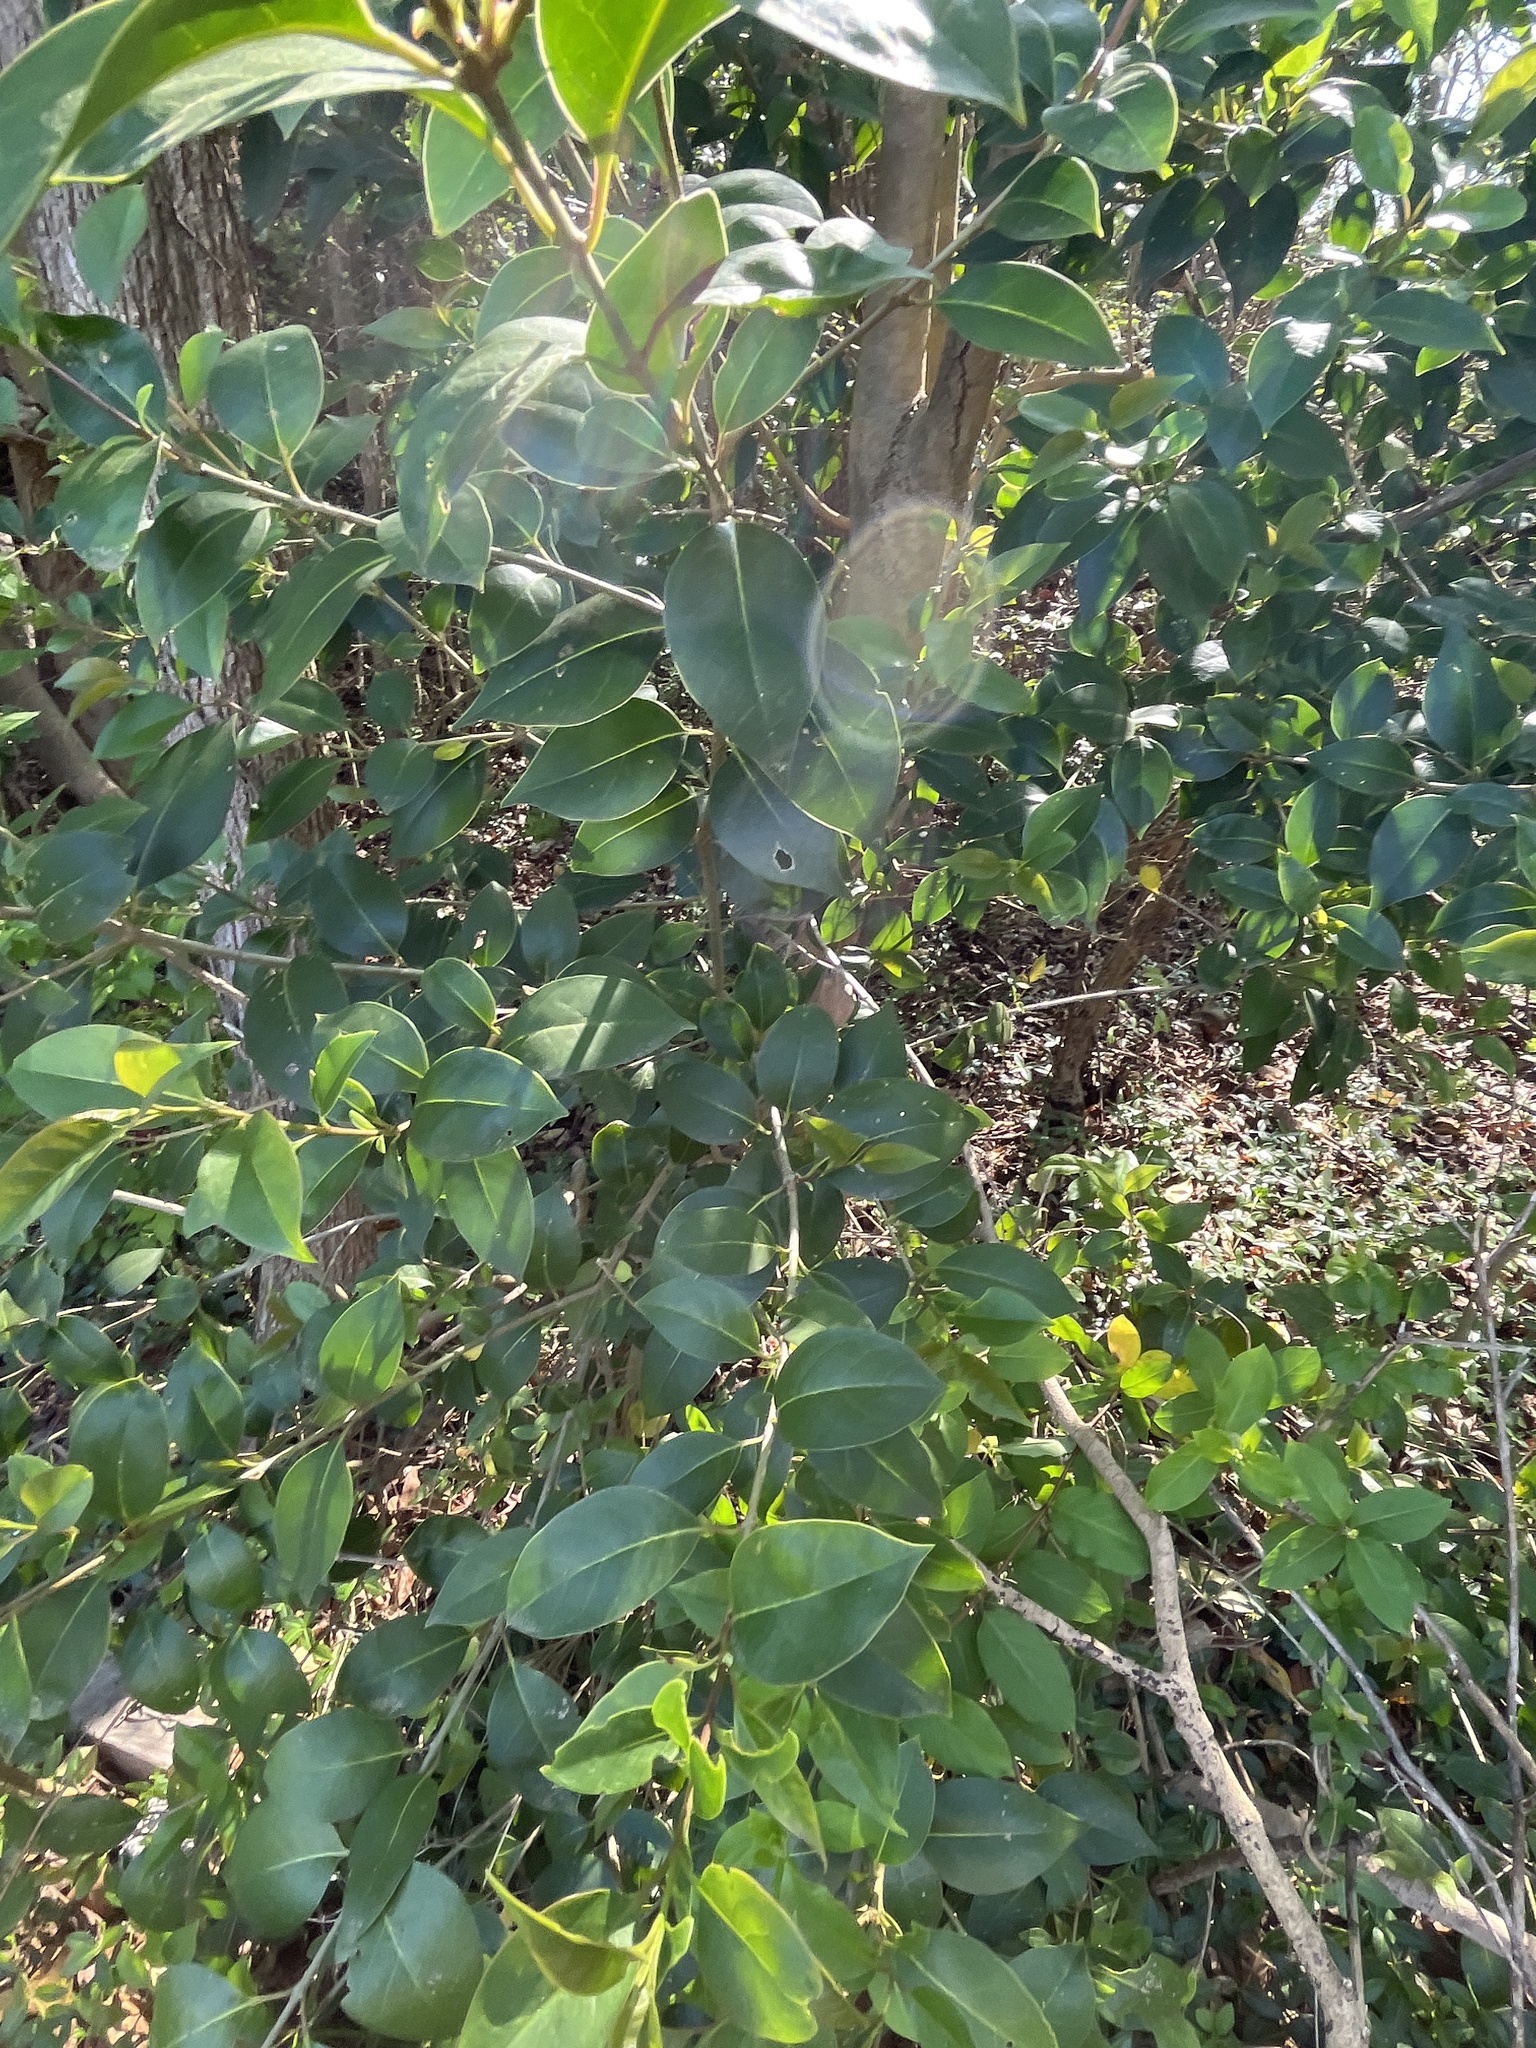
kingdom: Plantae
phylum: Tracheophyta
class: Magnoliopsida
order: Lamiales
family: Oleaceae
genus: Ligustrum
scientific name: Ligustrum lucidum
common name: Glossy privet
